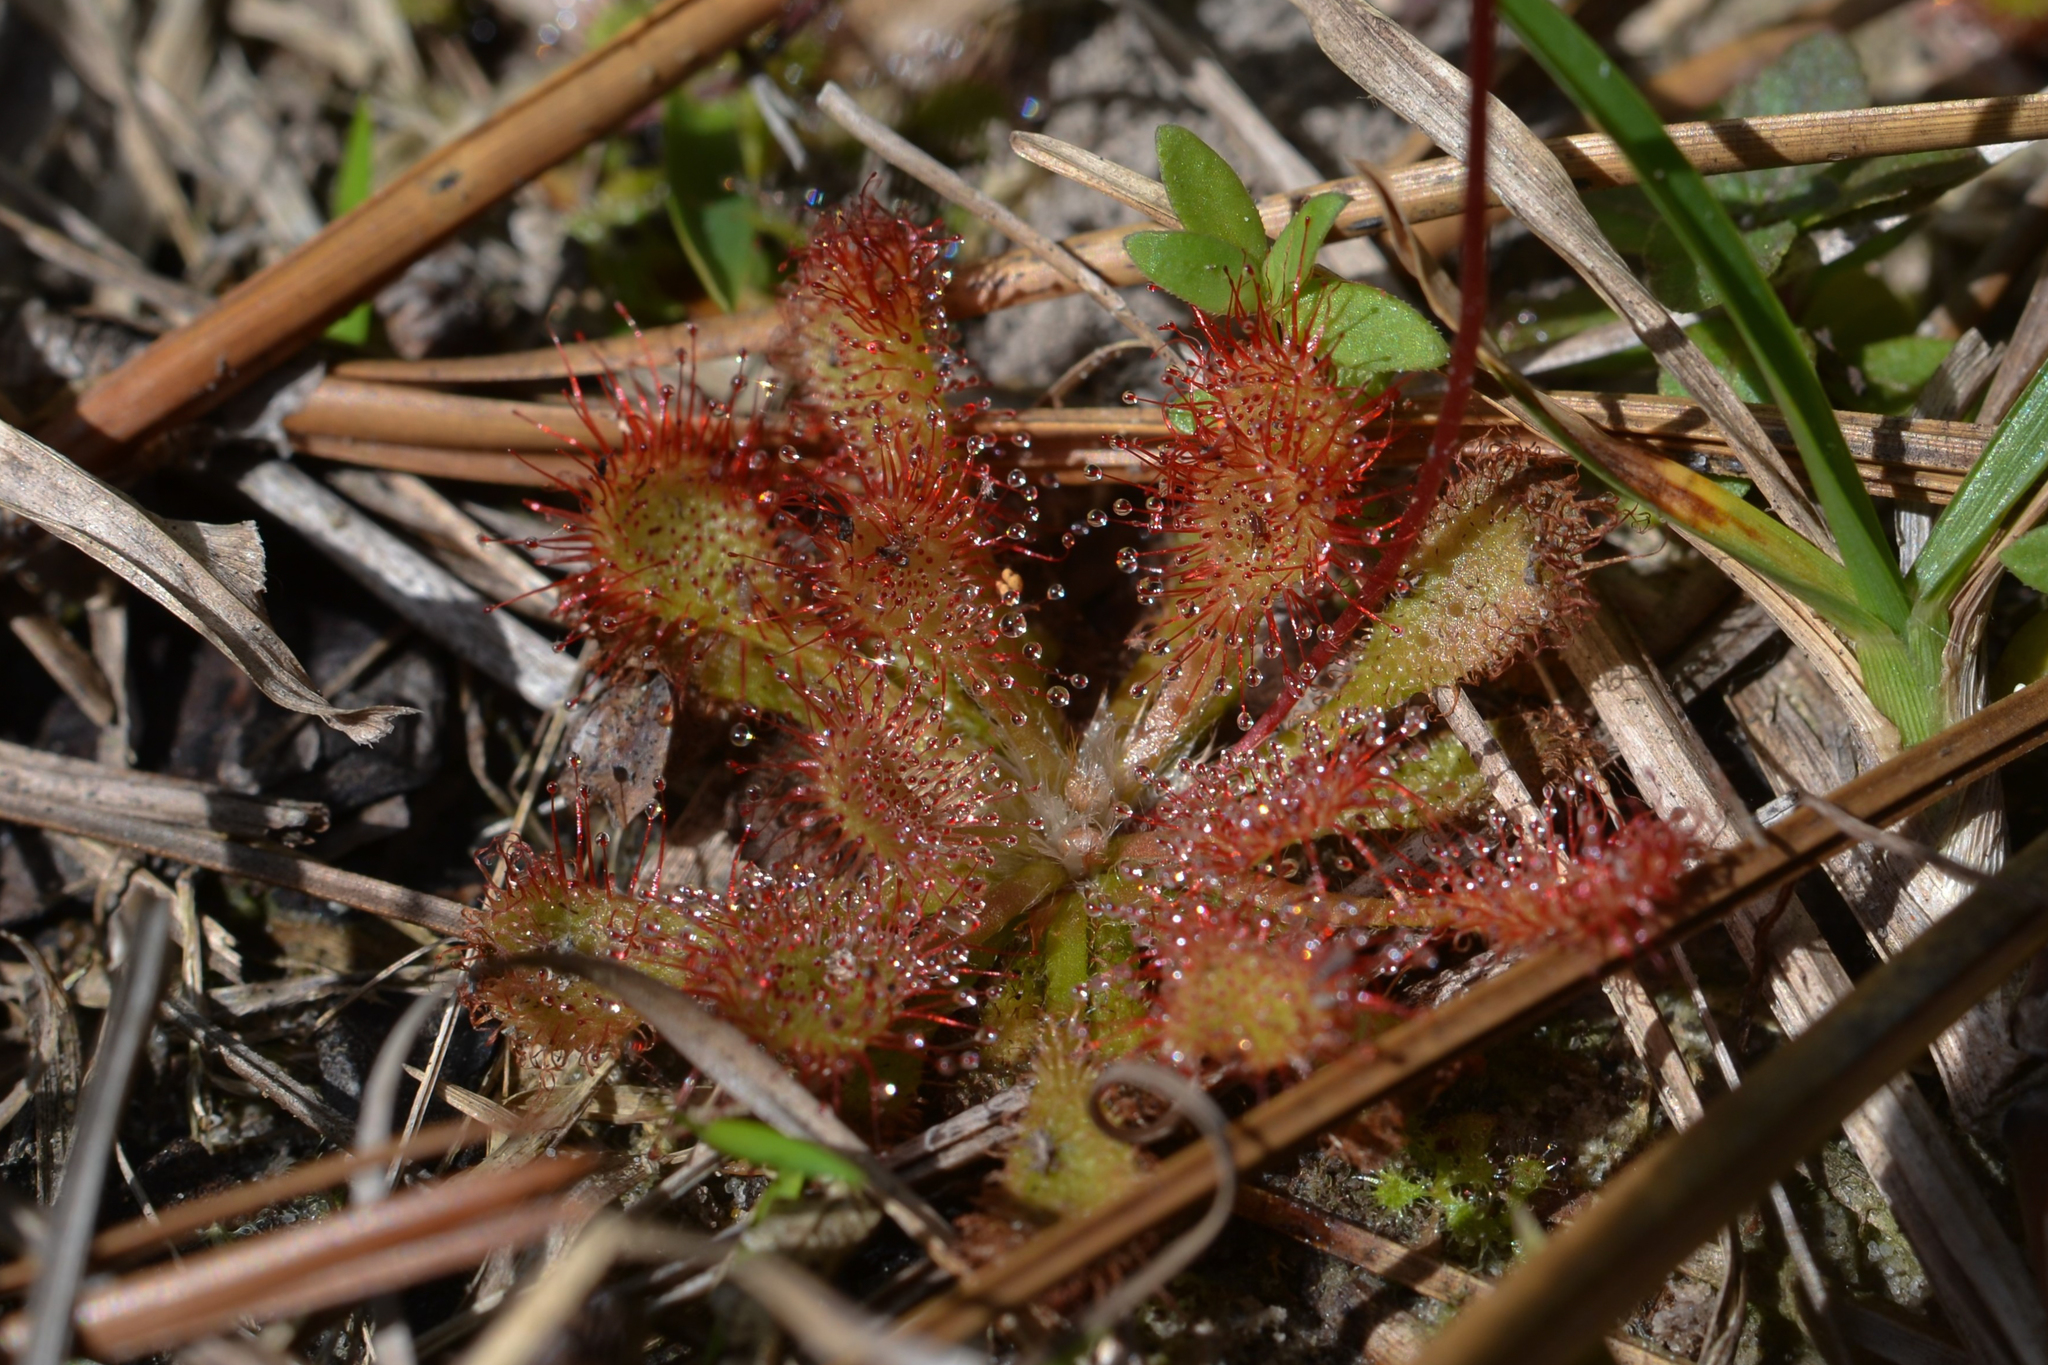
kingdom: Plantae
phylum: Tracheophyta
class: Magnoliopsida
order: Caryophyllales
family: Droseraceae
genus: Drosera
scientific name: Drosera capillaris
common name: Pink sundew
